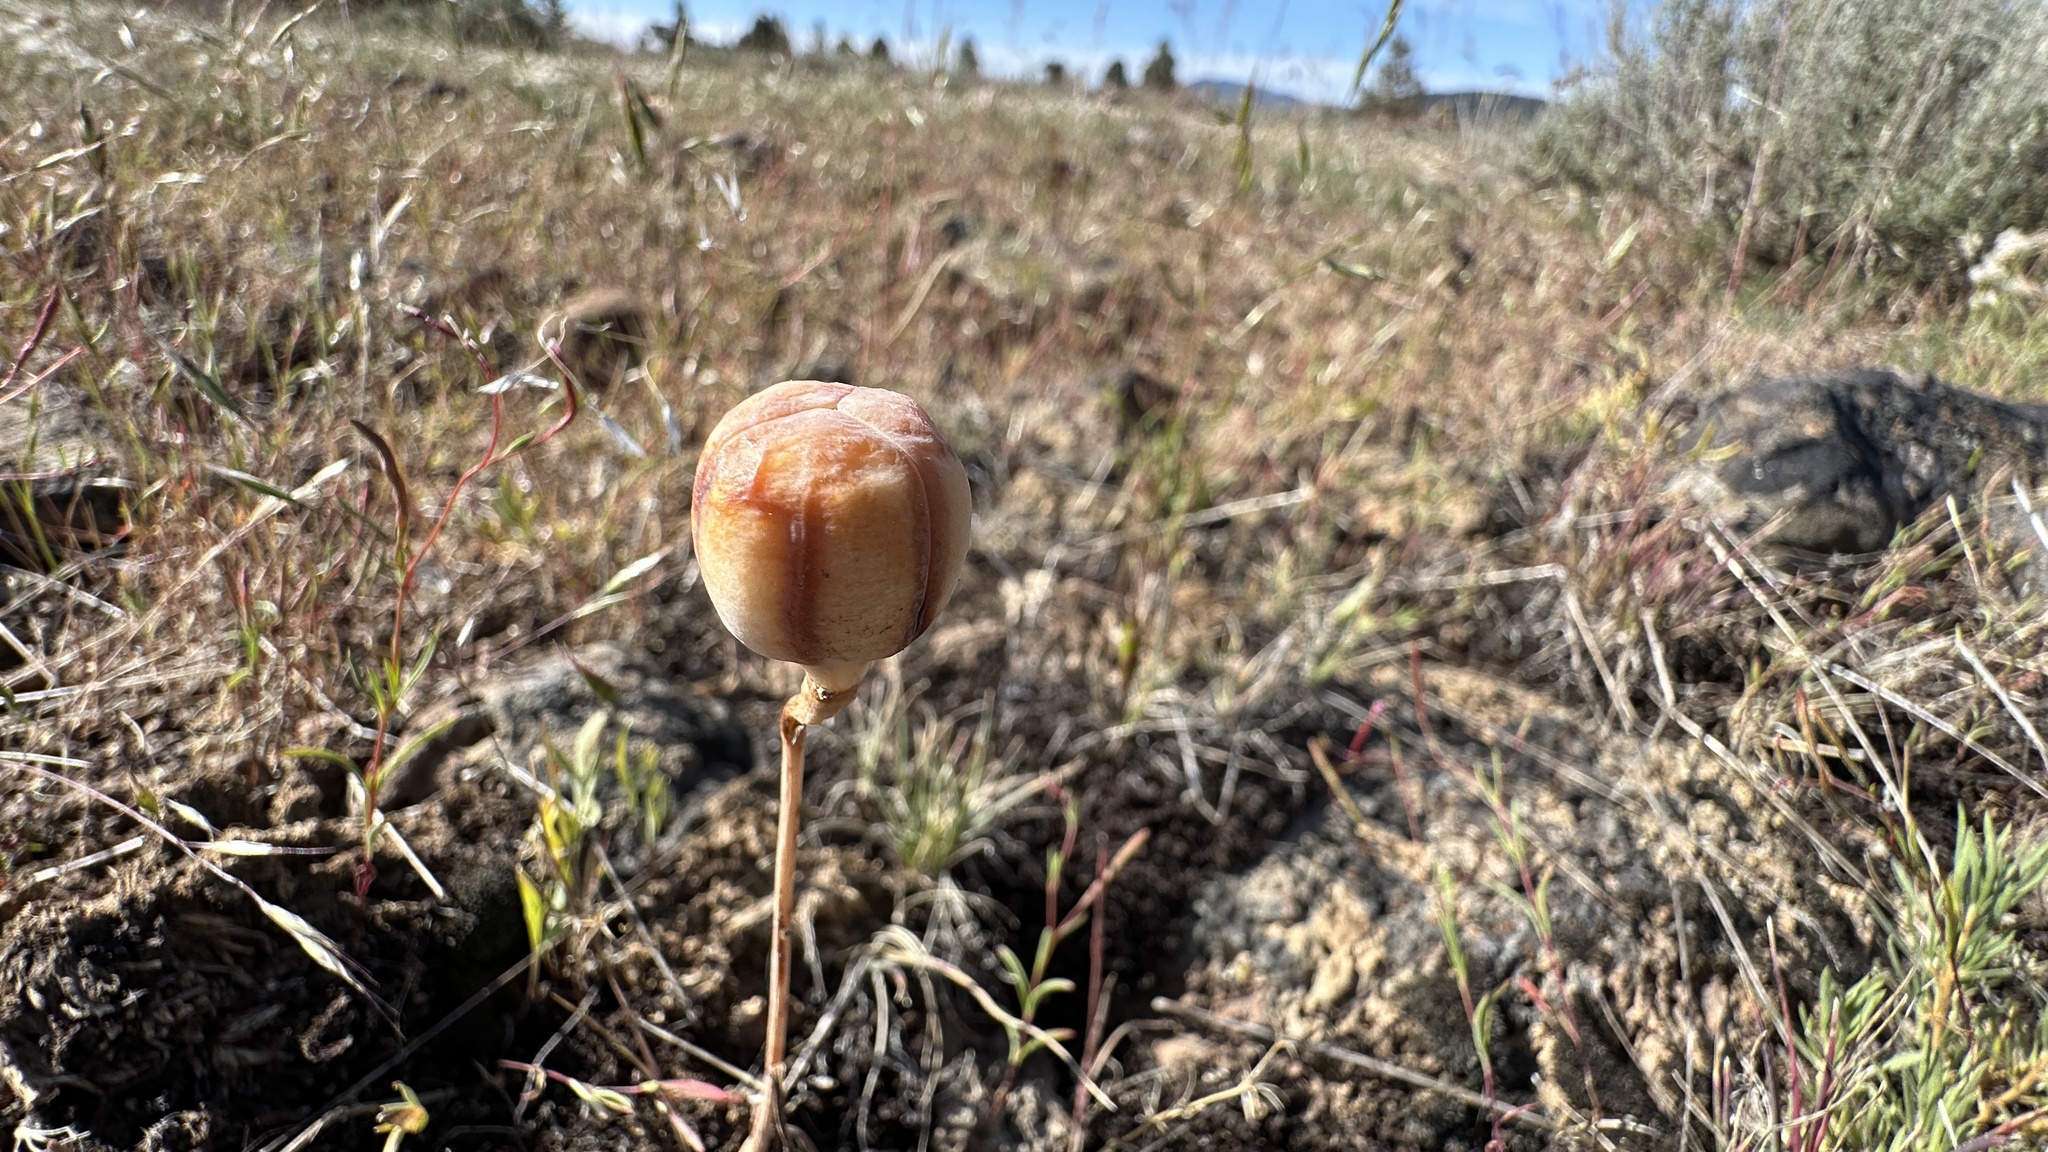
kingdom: Plantae
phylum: Tracheophyta
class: Liliopsida
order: Liliales
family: Liliaceae
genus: Fritillaria
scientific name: Fritillaria pudica
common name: Yellow fritillary
